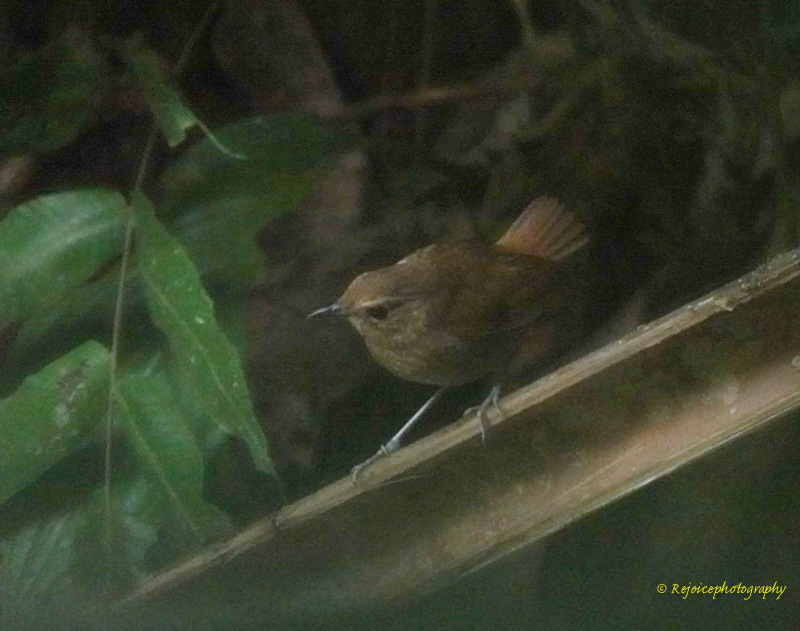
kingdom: Animalia
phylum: Chordata
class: Aves
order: Passeriformes
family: Muscicapidae
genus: Brachypteryx
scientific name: Brachypteryx leucophris
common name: Lesser shortwing
